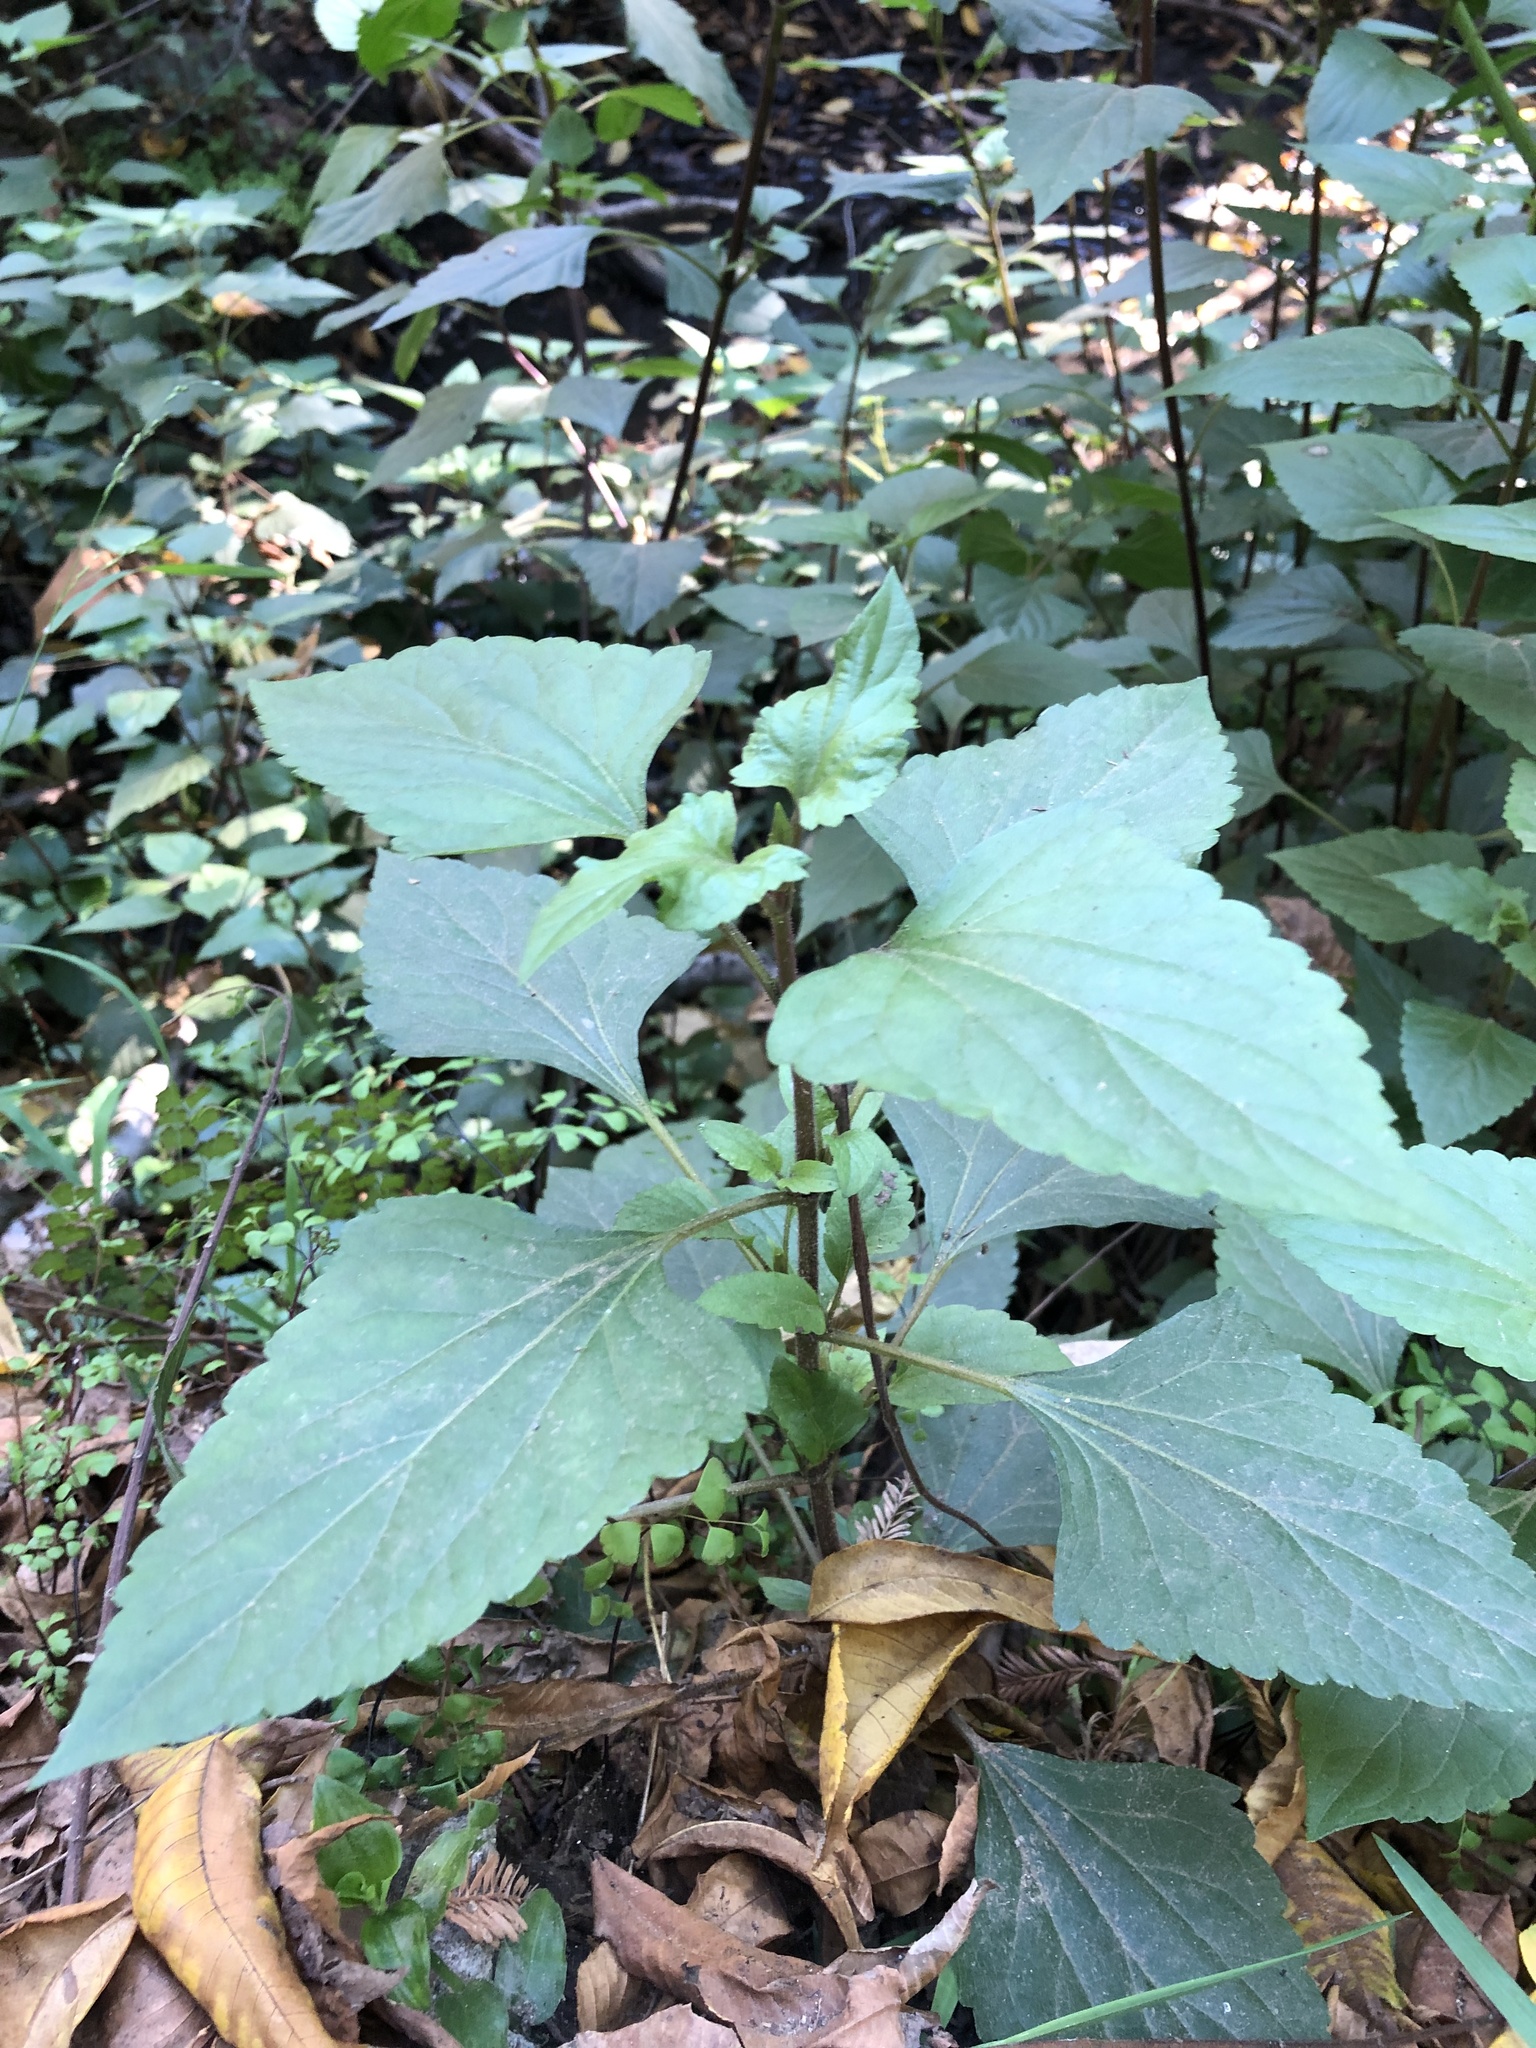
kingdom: Plantae
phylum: Tracheophyta
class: Magnoliopsida
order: Asterales
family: Asteraceae
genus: Ageratina
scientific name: Ageratina adenophora
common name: Sticky snakeroot
